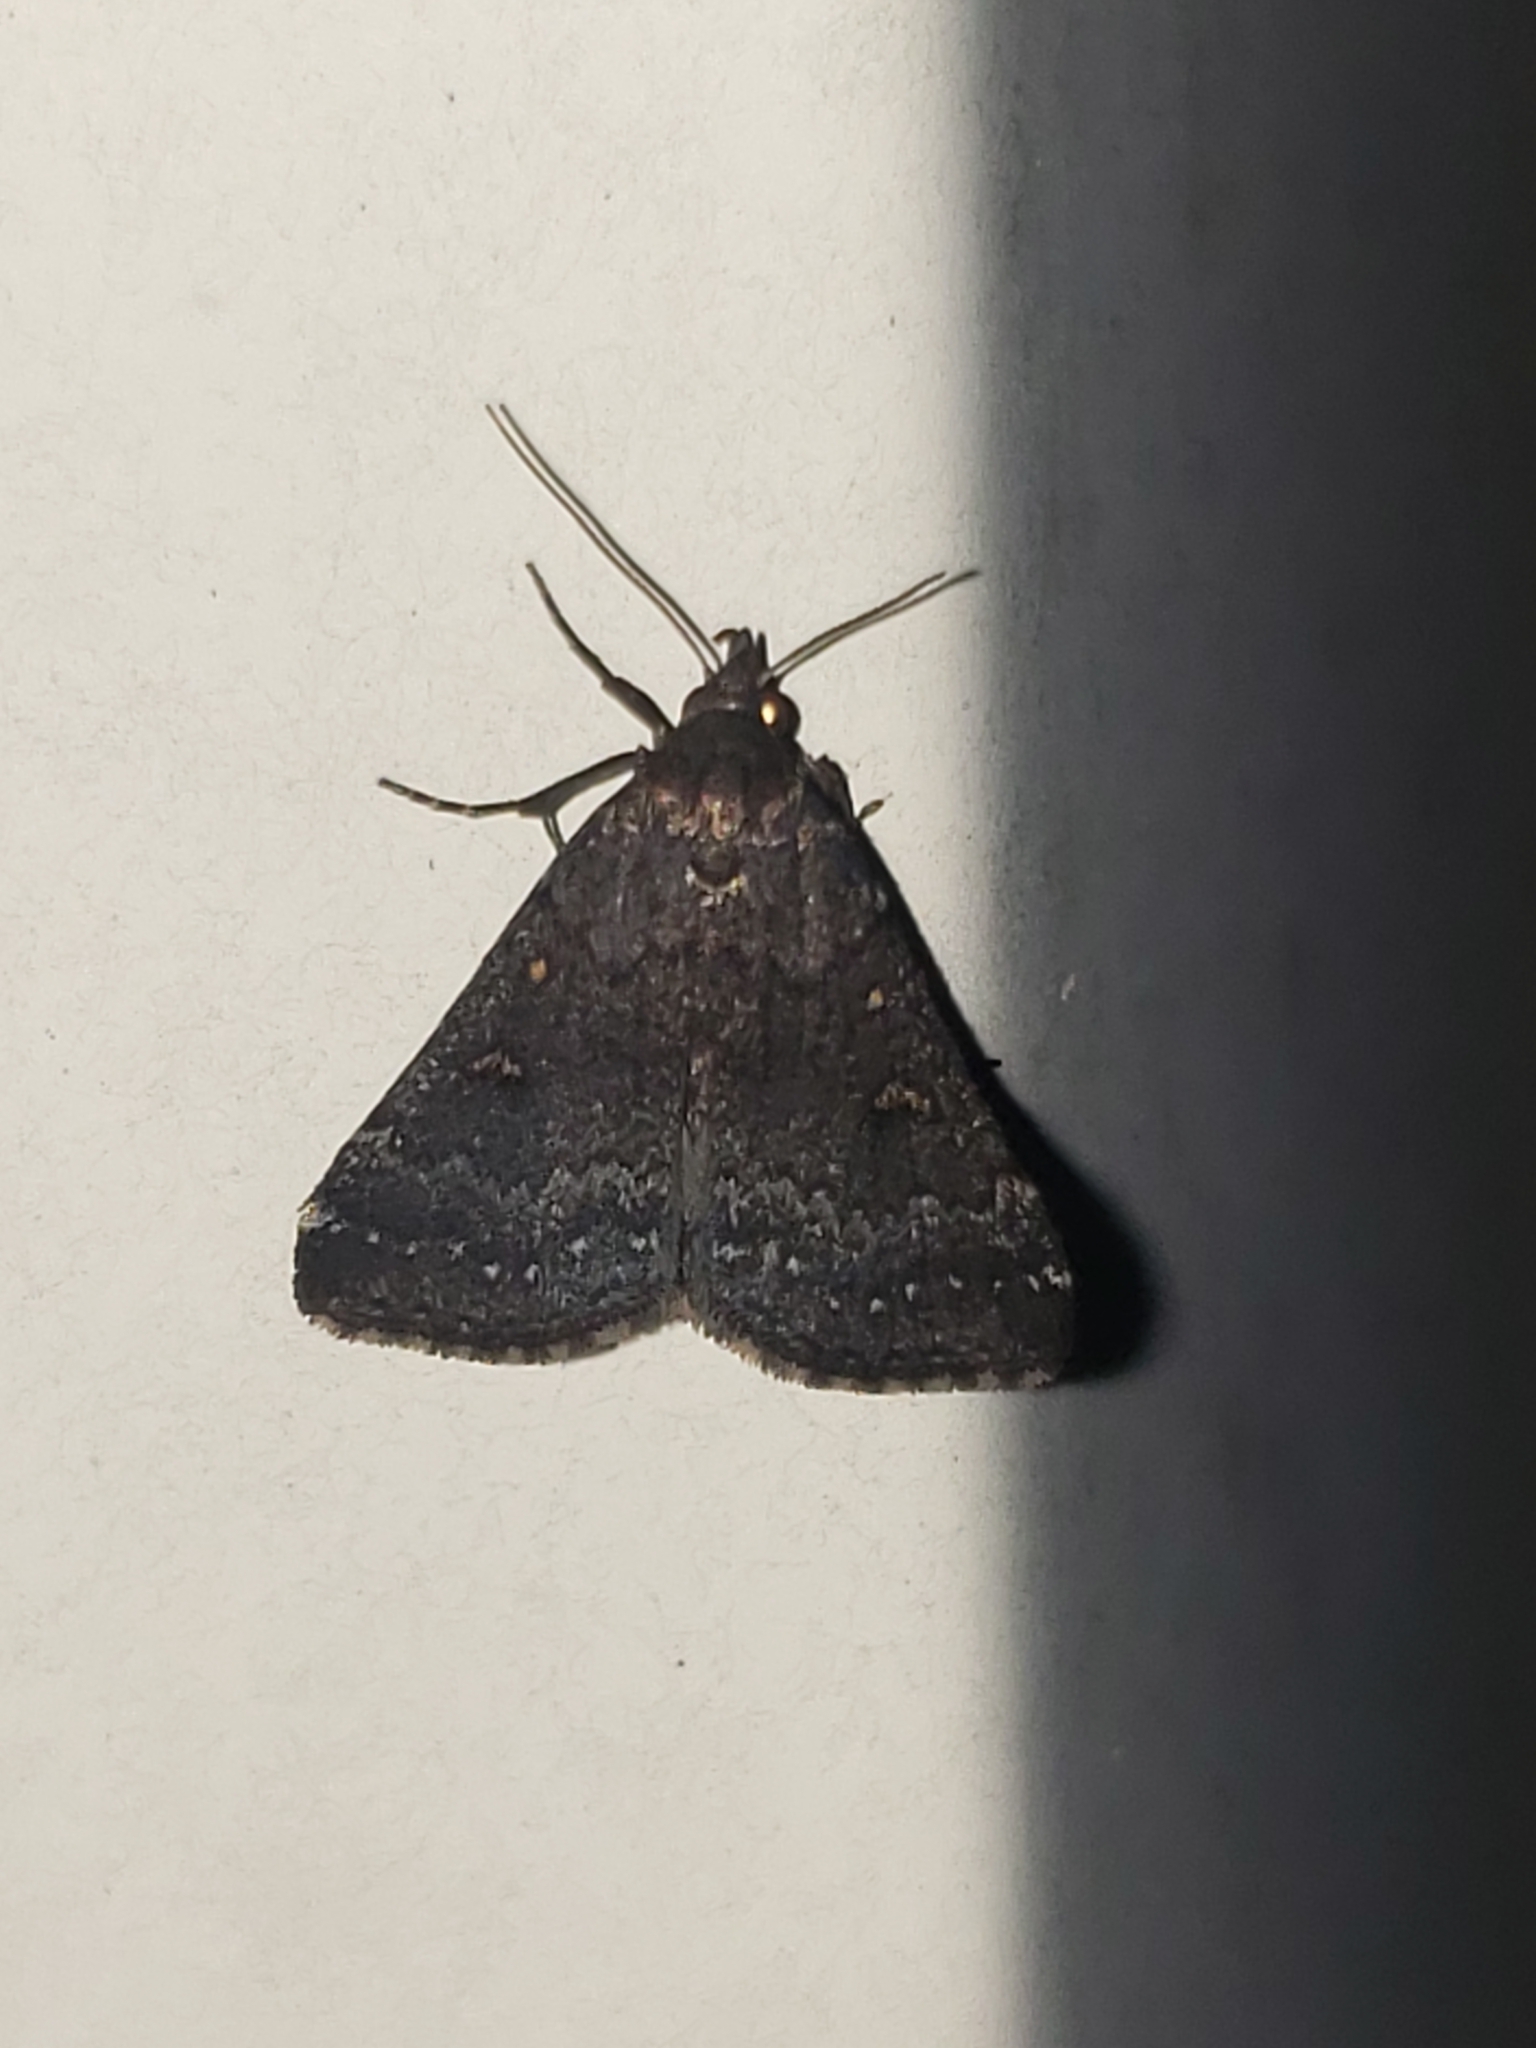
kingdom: Animalia
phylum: Arthropoda
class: Insecta
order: Lepidoptera
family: Erebidae
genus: Tetanolita
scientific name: Tetanolita mynesalis
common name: Smoky tetanolita moth
